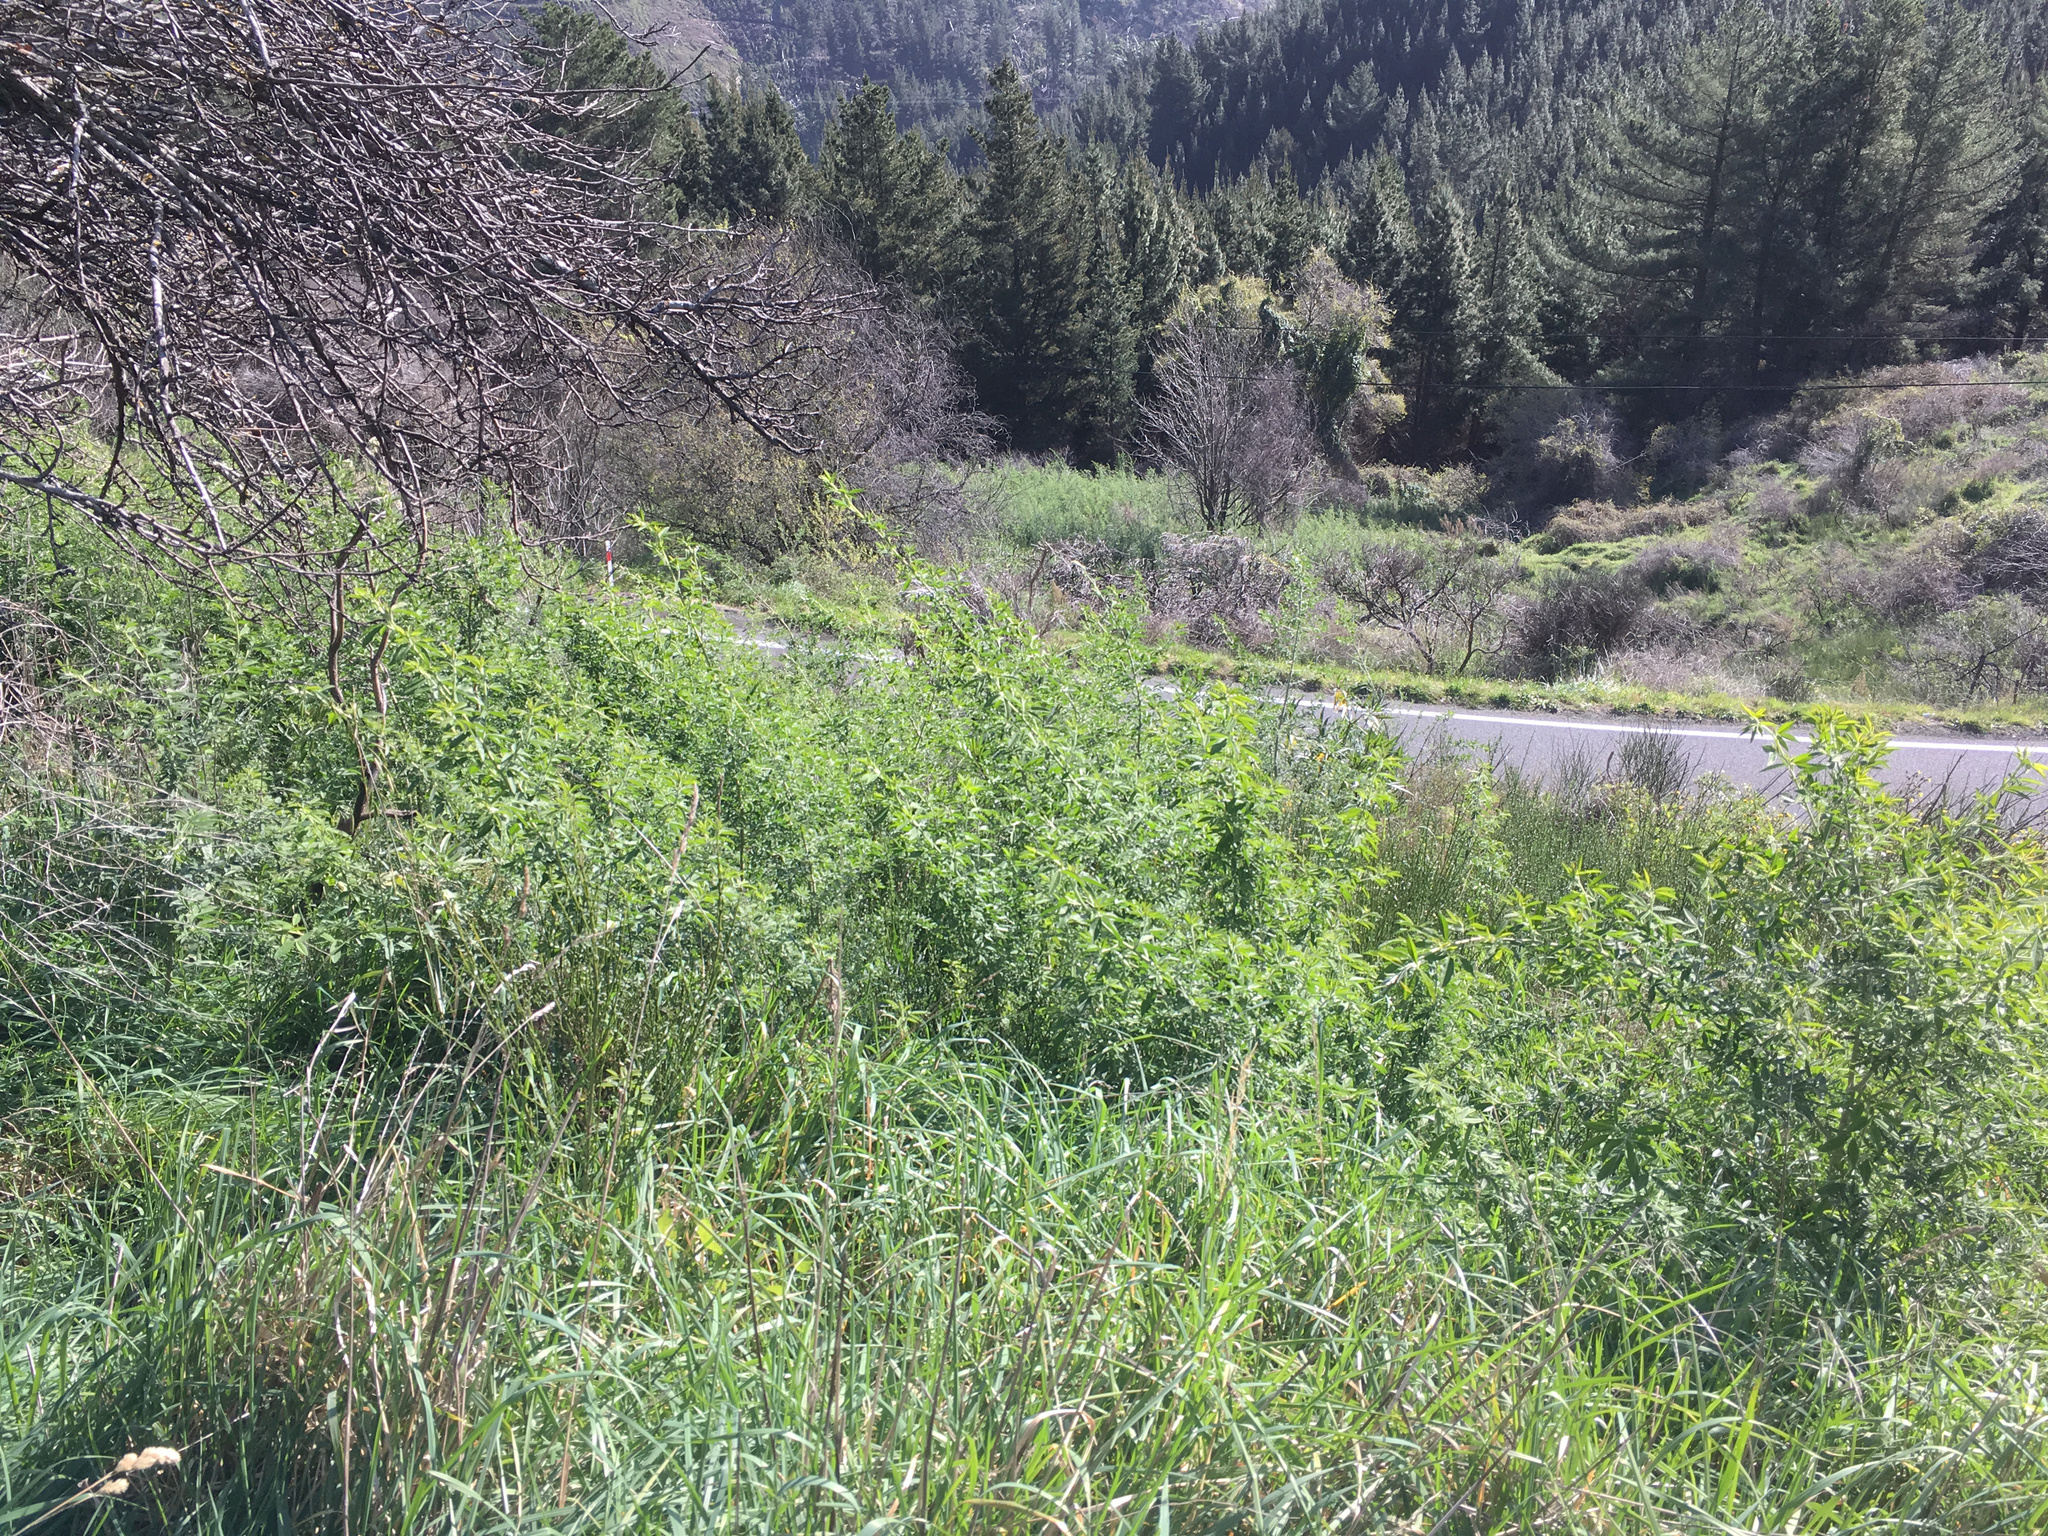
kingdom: Plantae
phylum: Tracheophyta
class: Magnoliopsida
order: Fabales
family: Fabaceae
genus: Chamaecytisus
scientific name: Chamaecytisus prolifer
